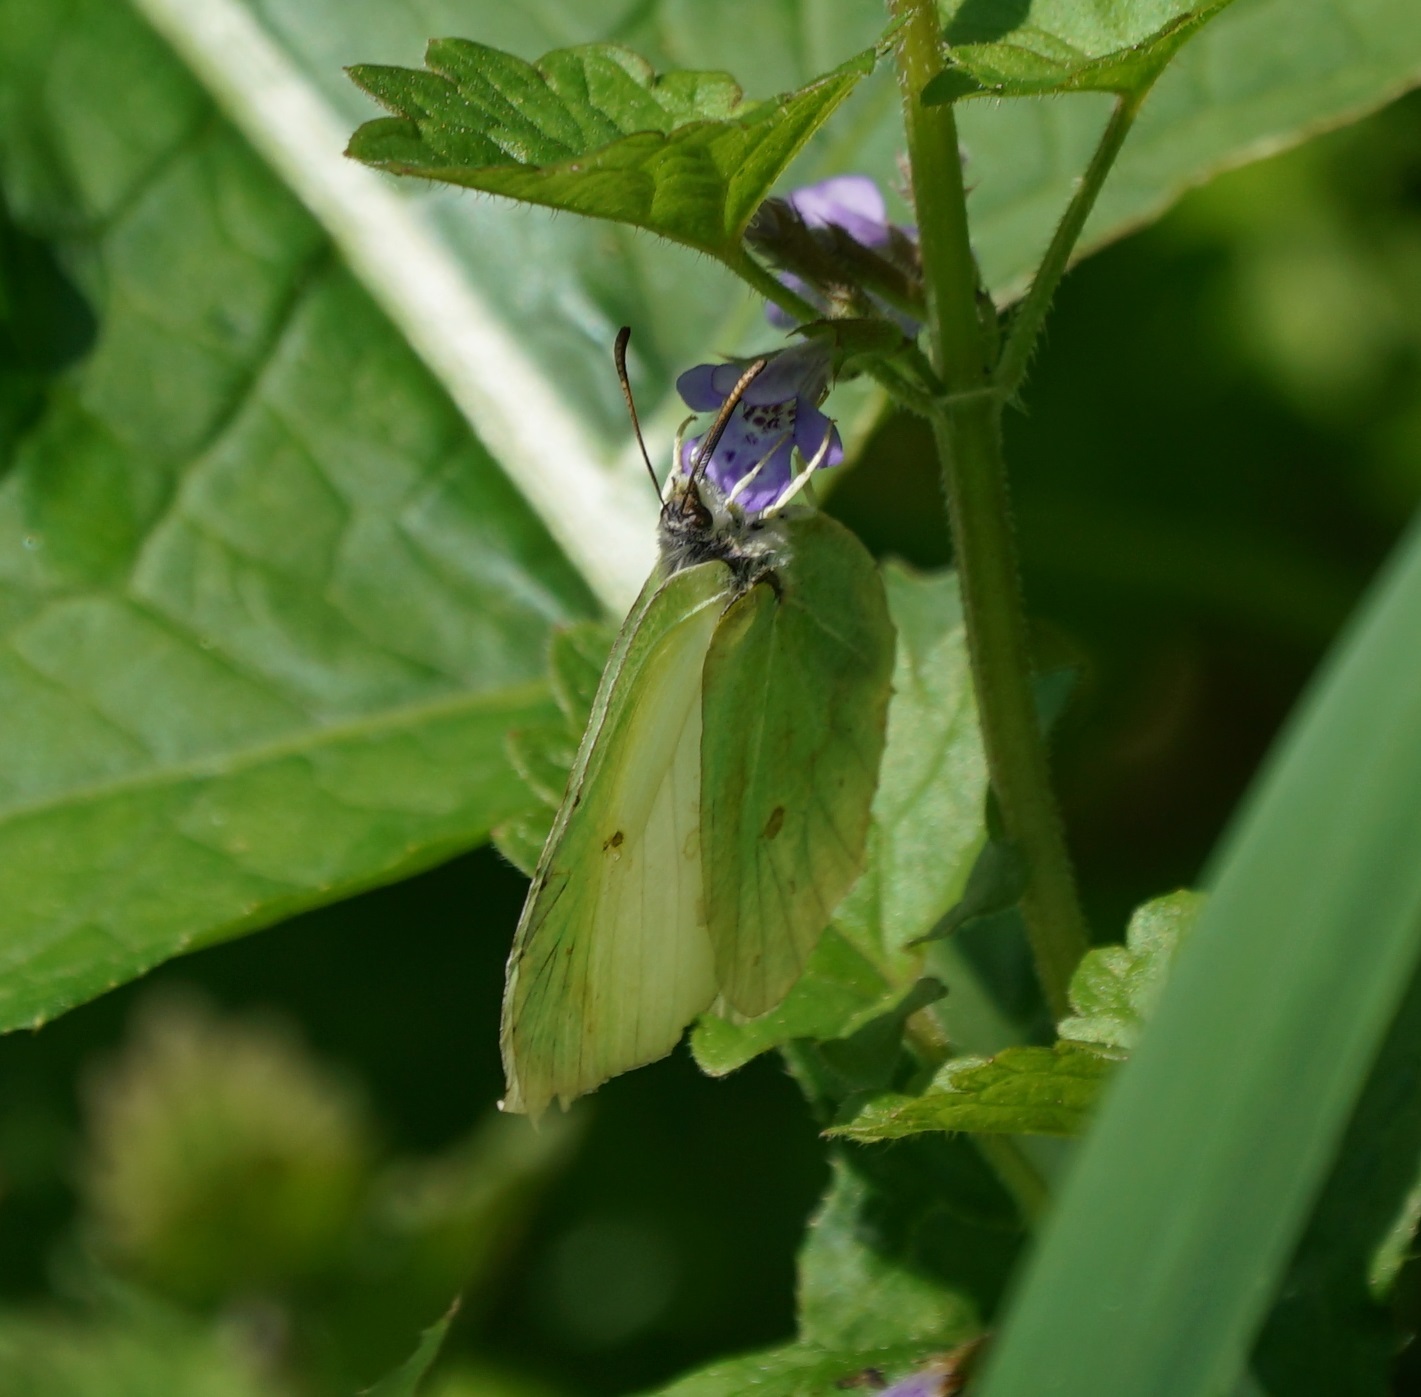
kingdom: Animalia
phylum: Arthropoda
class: Insecta
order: Lepidoptera
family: Pieridae
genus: Gonepteryx
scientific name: Gonepteryx rhamni
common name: Brimstone
